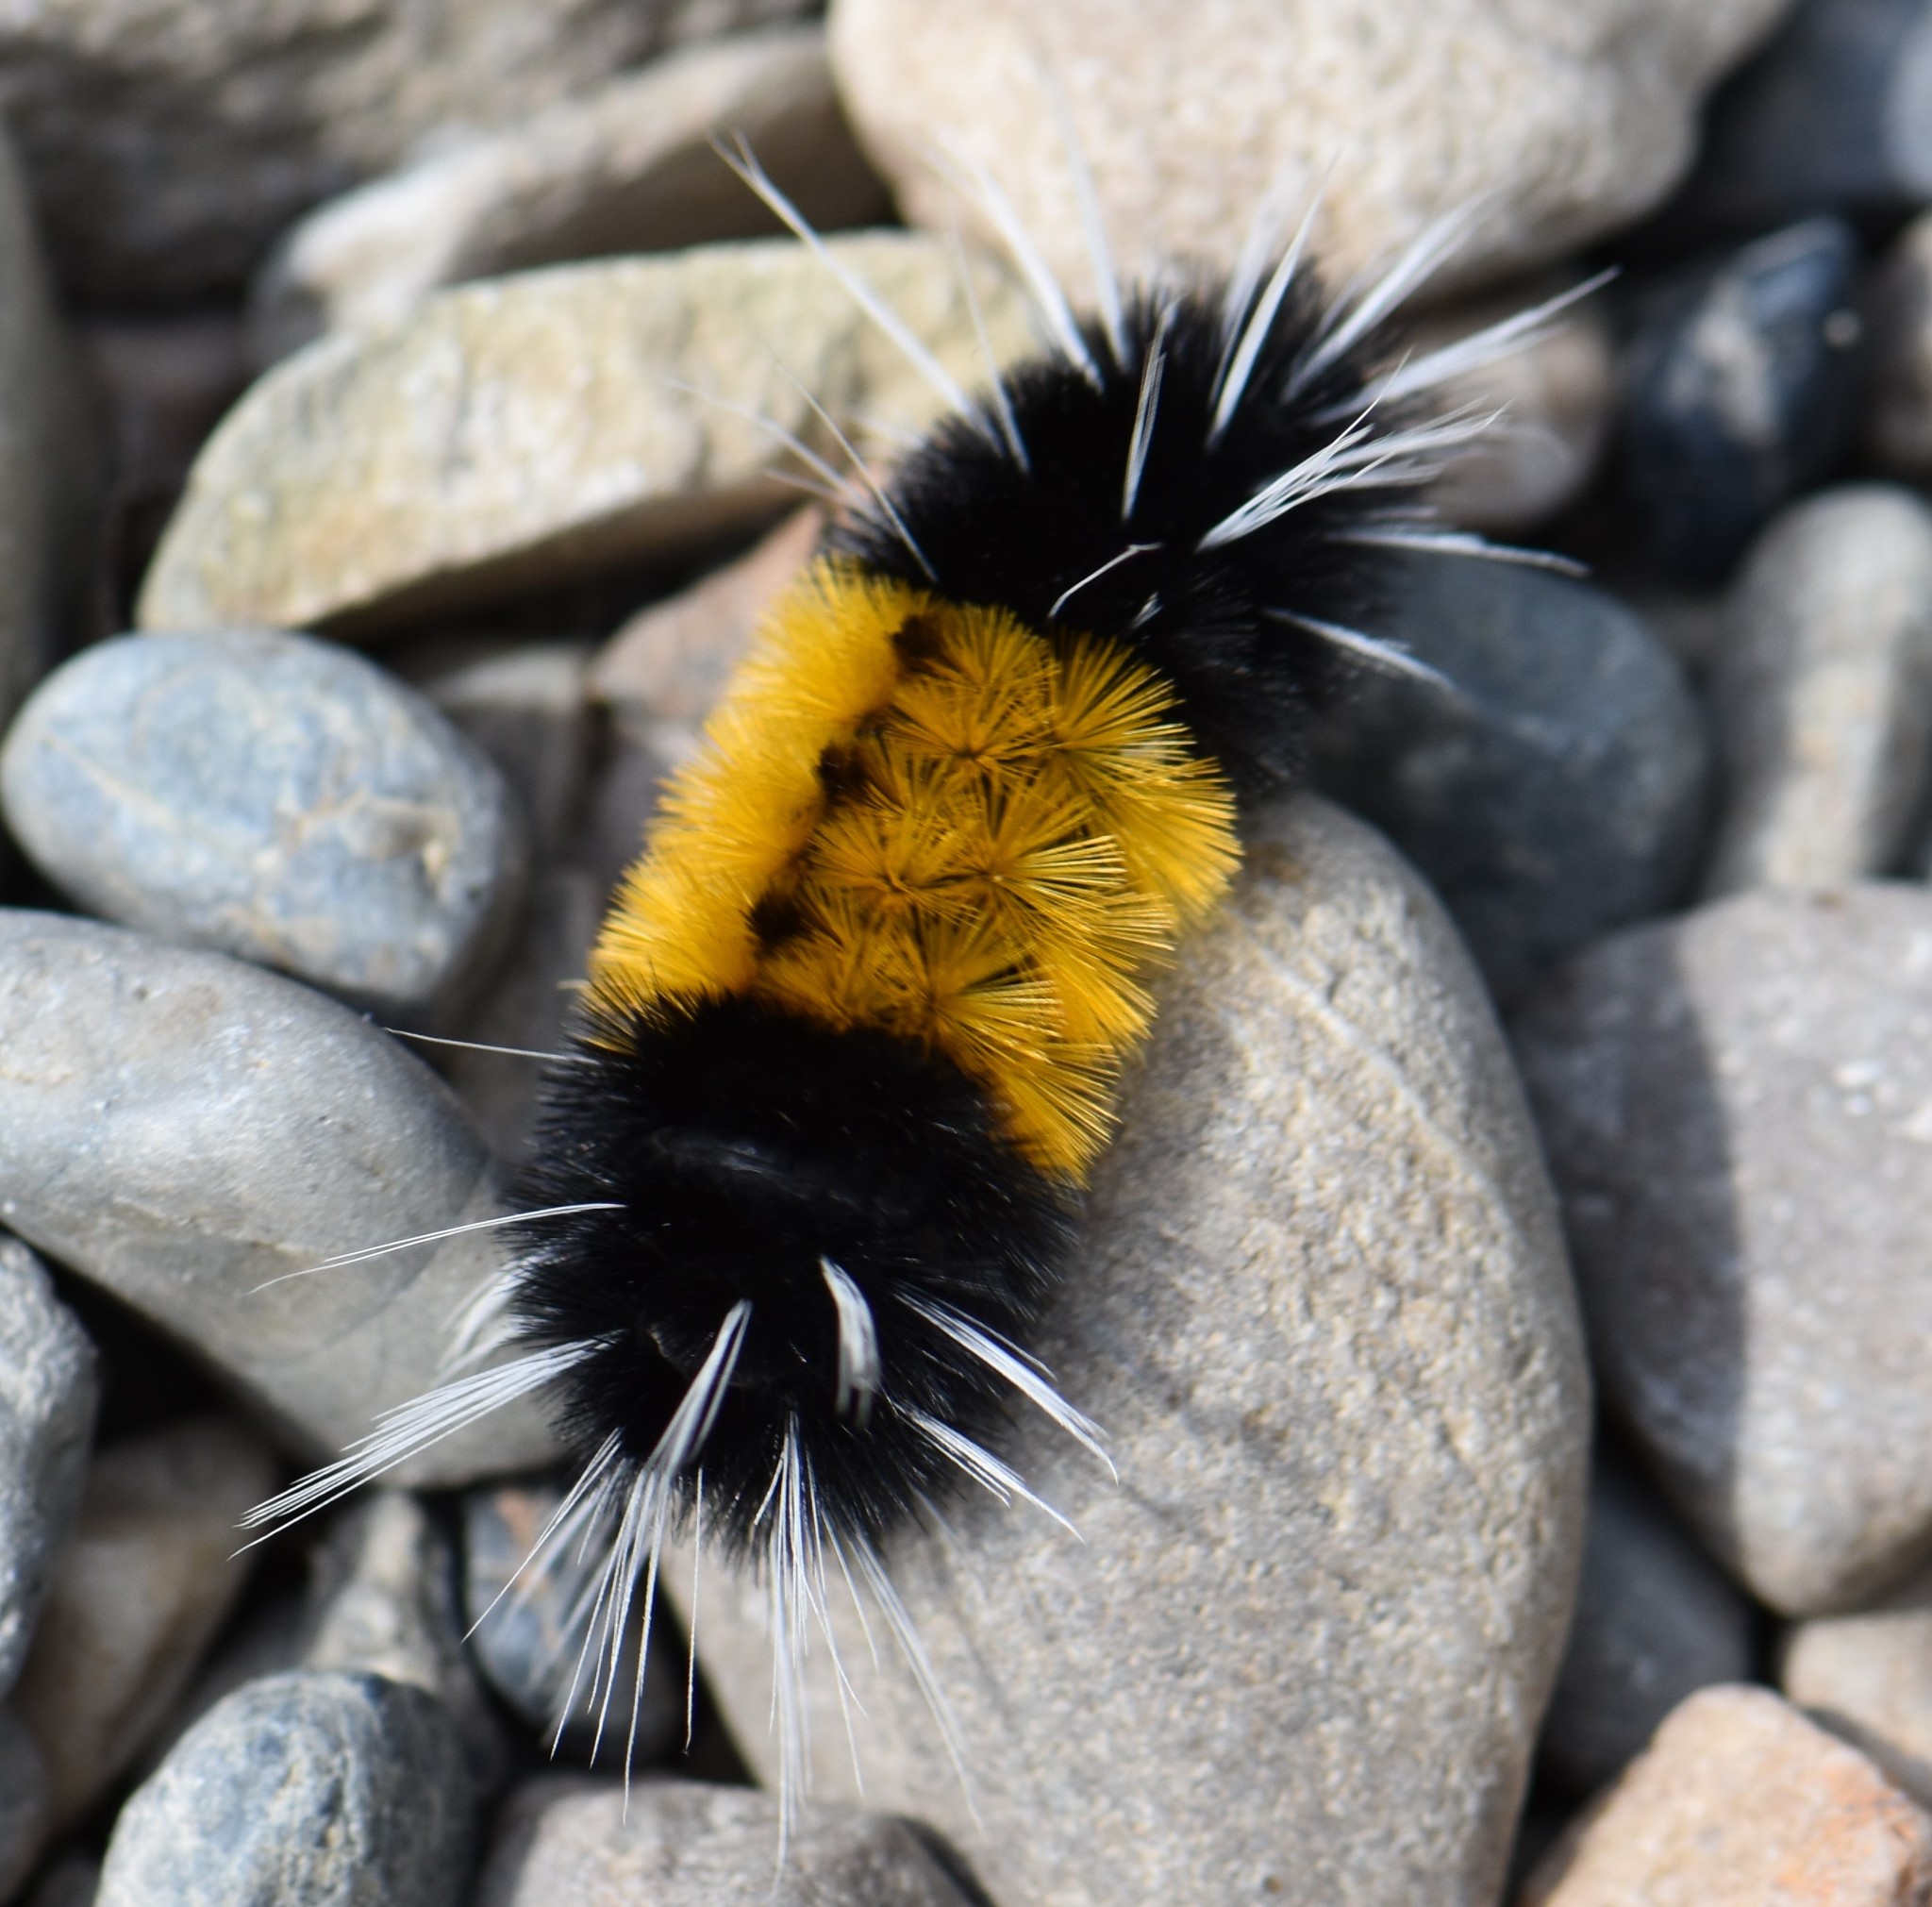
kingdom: Animalia
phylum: Arthropoda
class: Insecta
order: Lepidoptera
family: Erebidae
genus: Lophocampa
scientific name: Lophocampa maculata
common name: Spotted tussock moth
